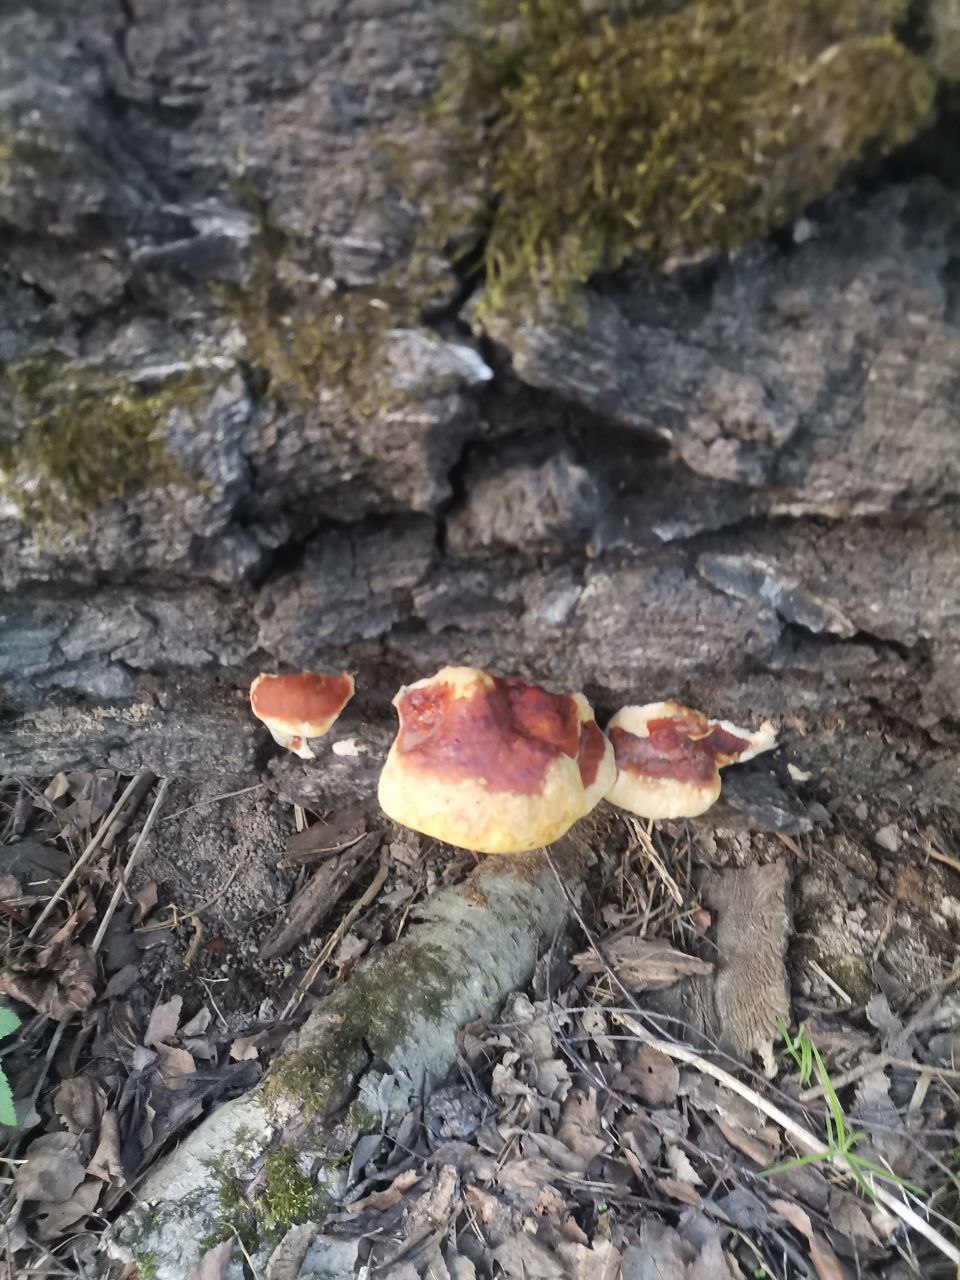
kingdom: Fungi
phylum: Basidiomycota
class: Agaricomycetes
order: Polyporales
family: Fomitopsidaceae
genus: Fomitopsis
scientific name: Fomitopsis pinicola
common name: Red-belted bracket
